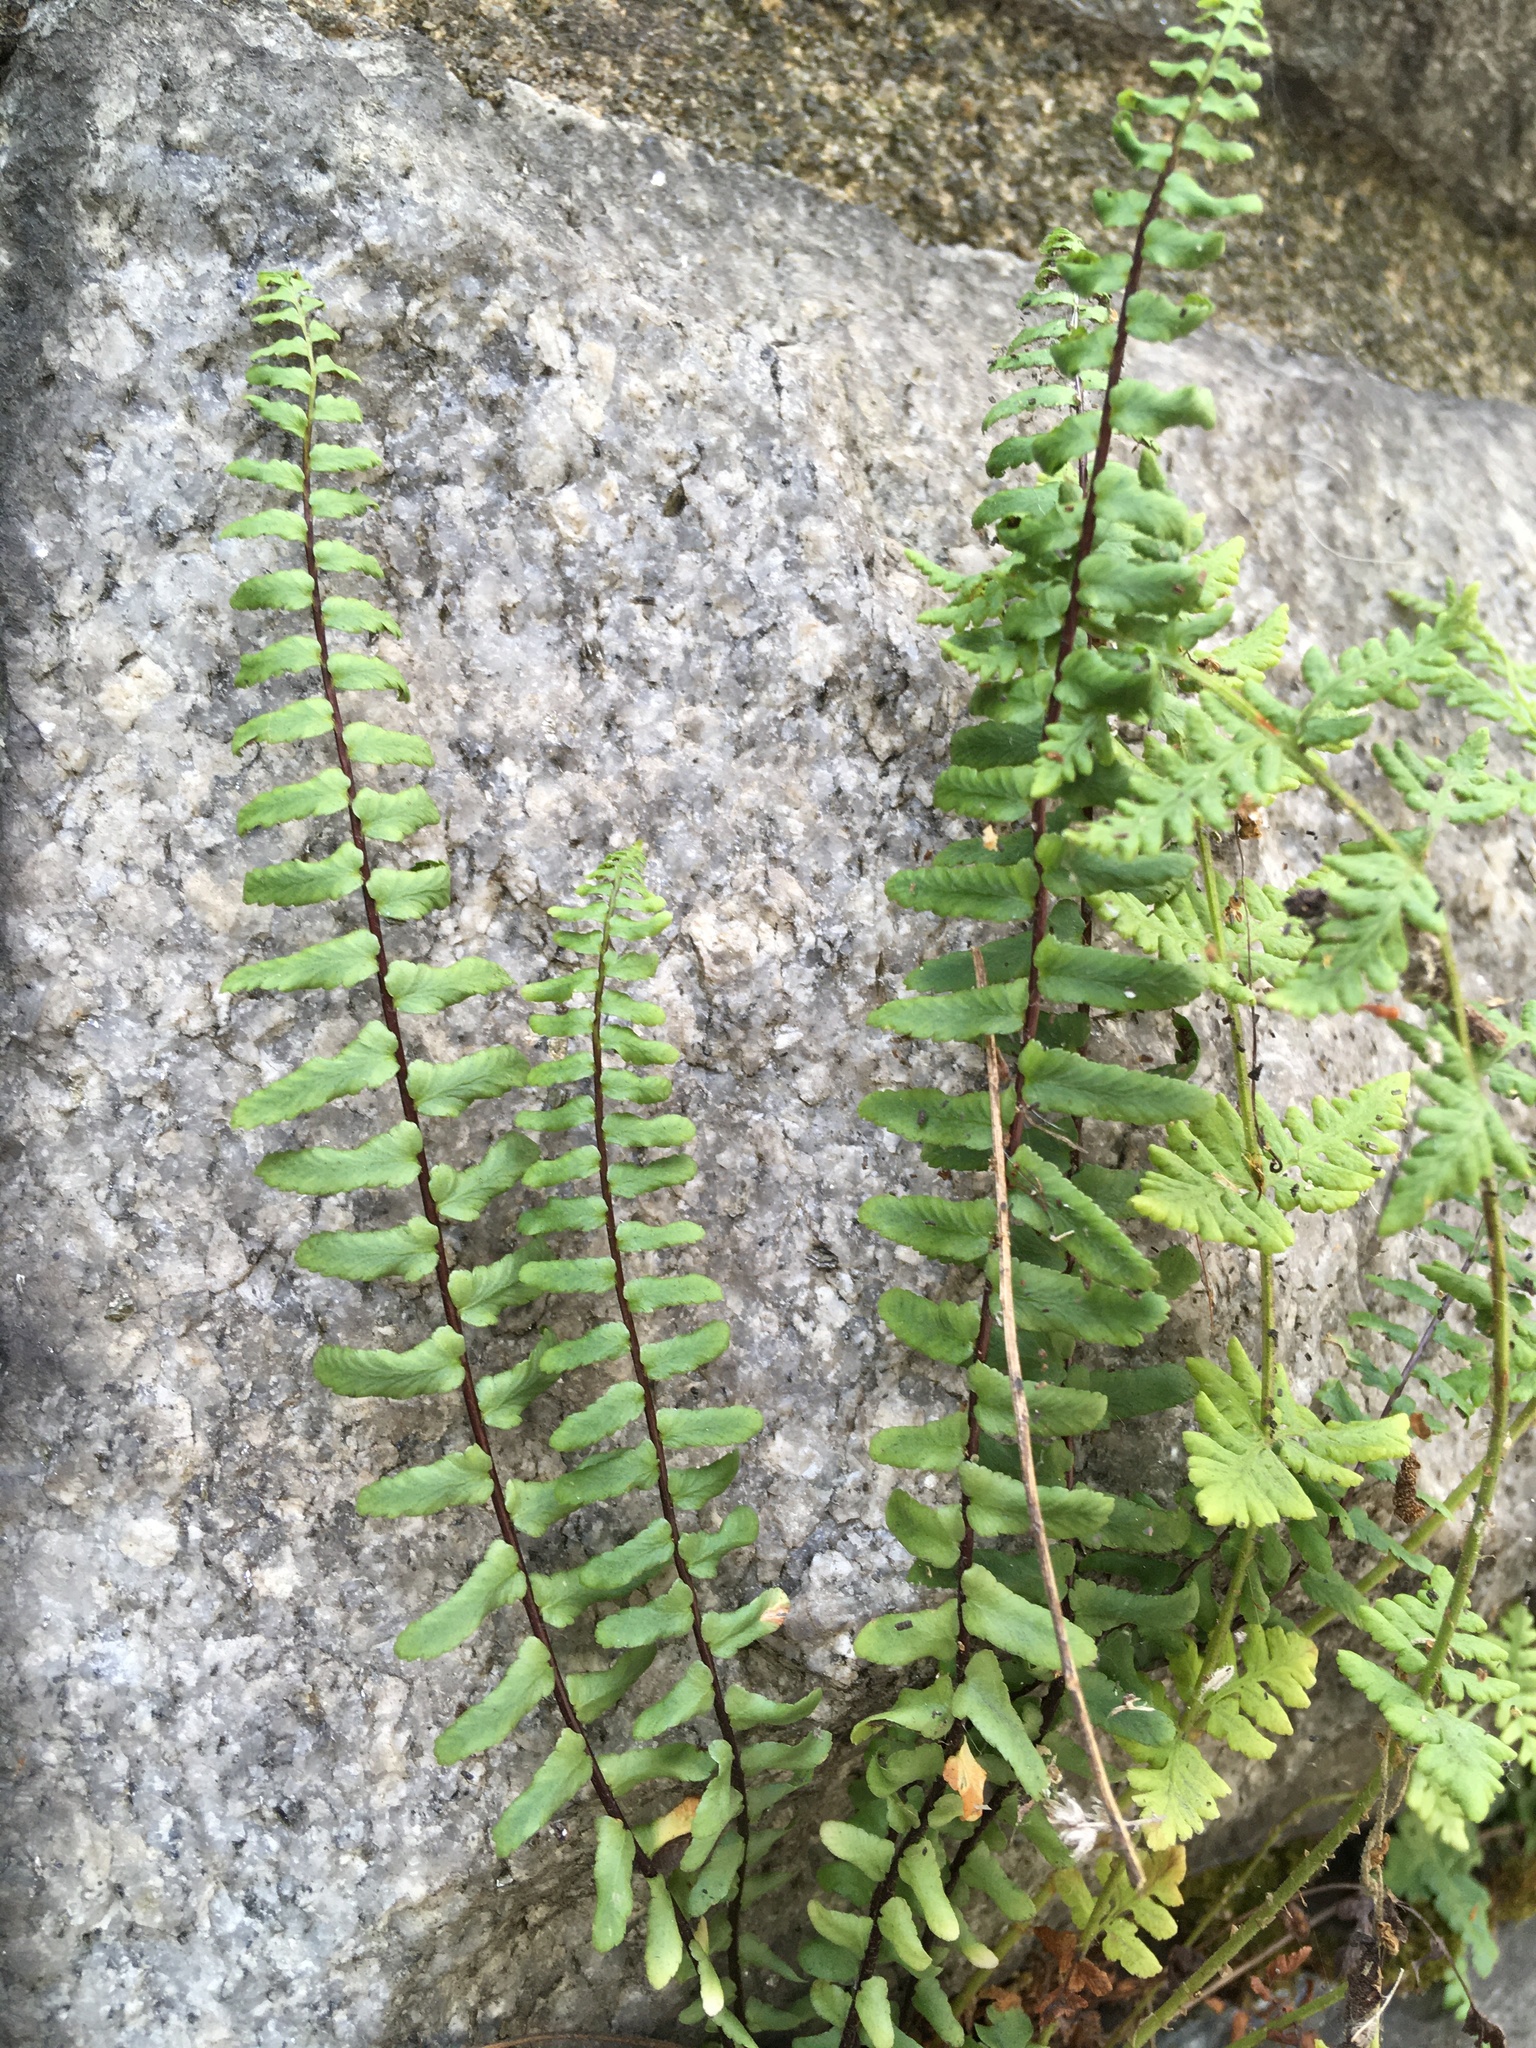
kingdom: Plantae
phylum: Tracheophyta
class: Polypodiopsida
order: Polypodiales
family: Aspleniaceae
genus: Asplenium
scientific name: Asplenium platyneuron
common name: Ebony spleenwort
